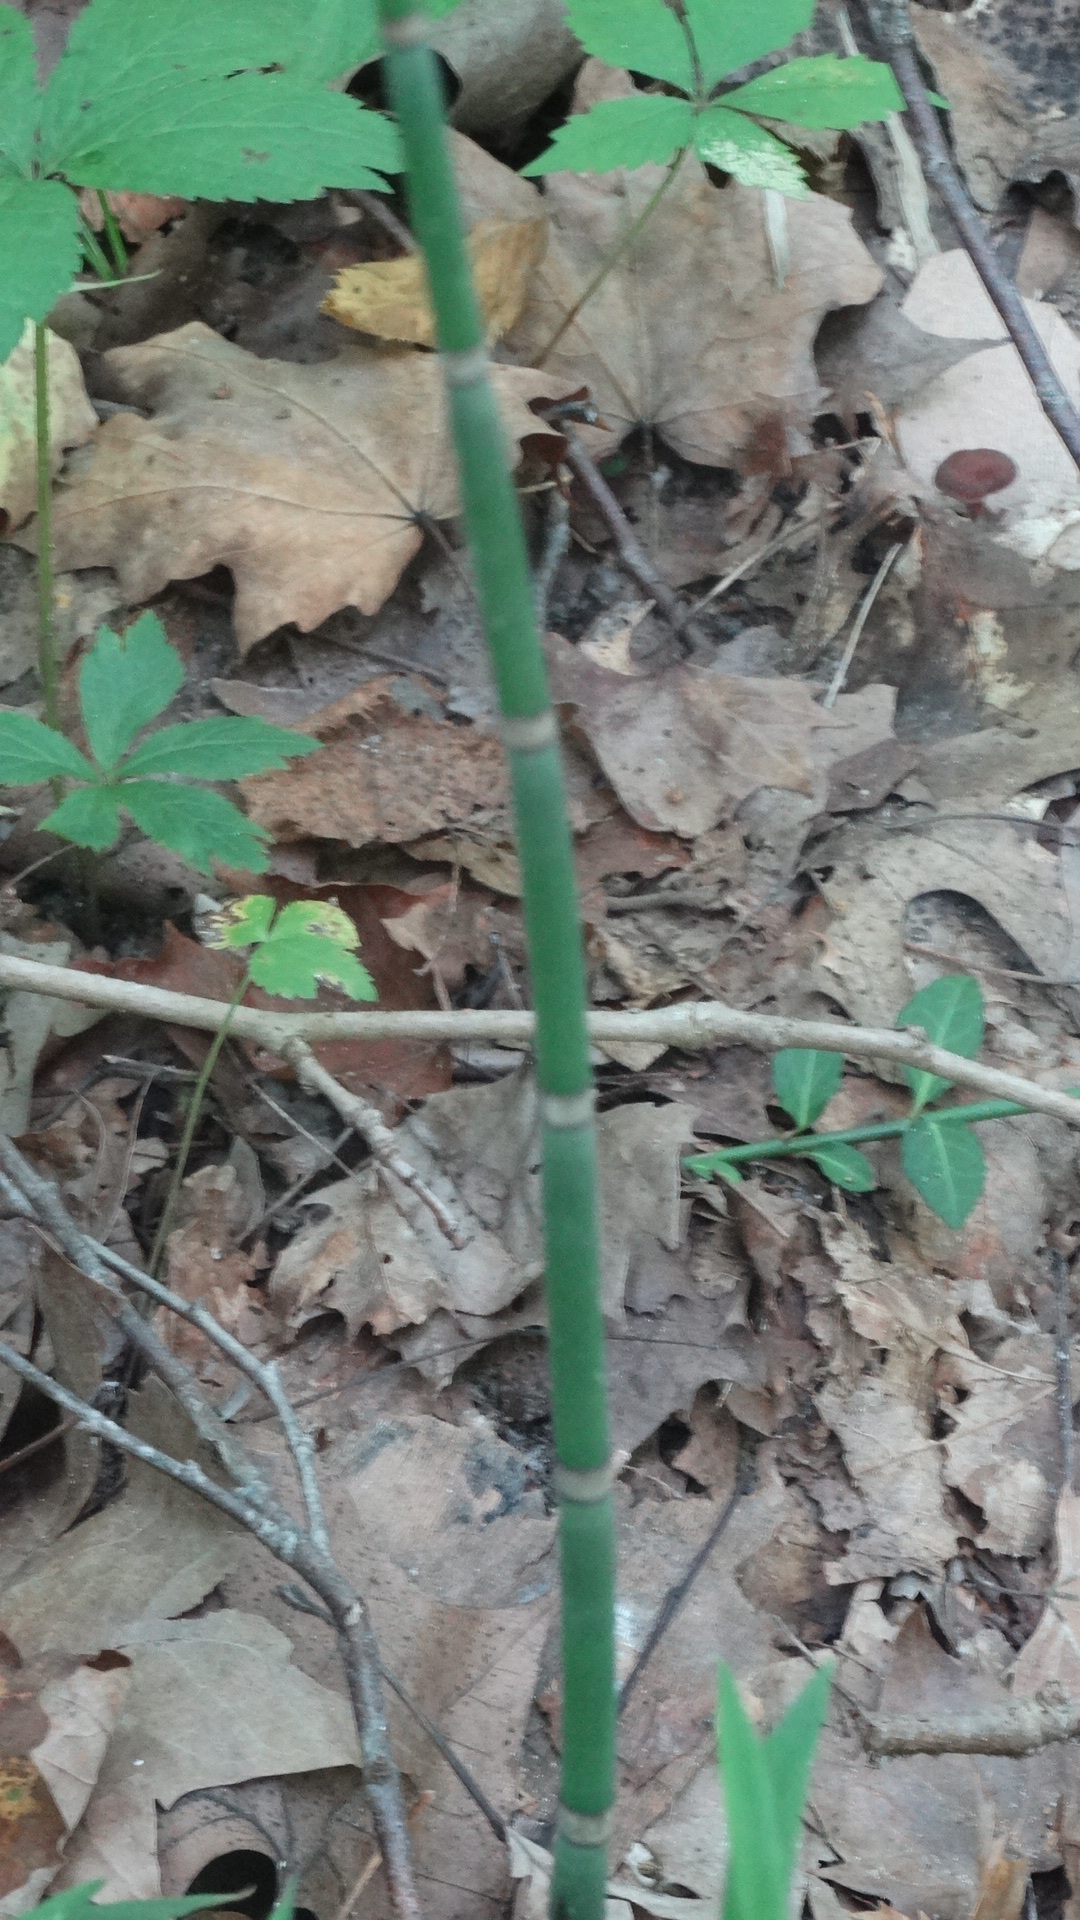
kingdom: Plantae
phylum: Tracheophyta
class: Polypodiopsida
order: Equisetales
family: Equisetaceae
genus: Equisetum
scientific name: Equisetum hyemale
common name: Rough horsetail
